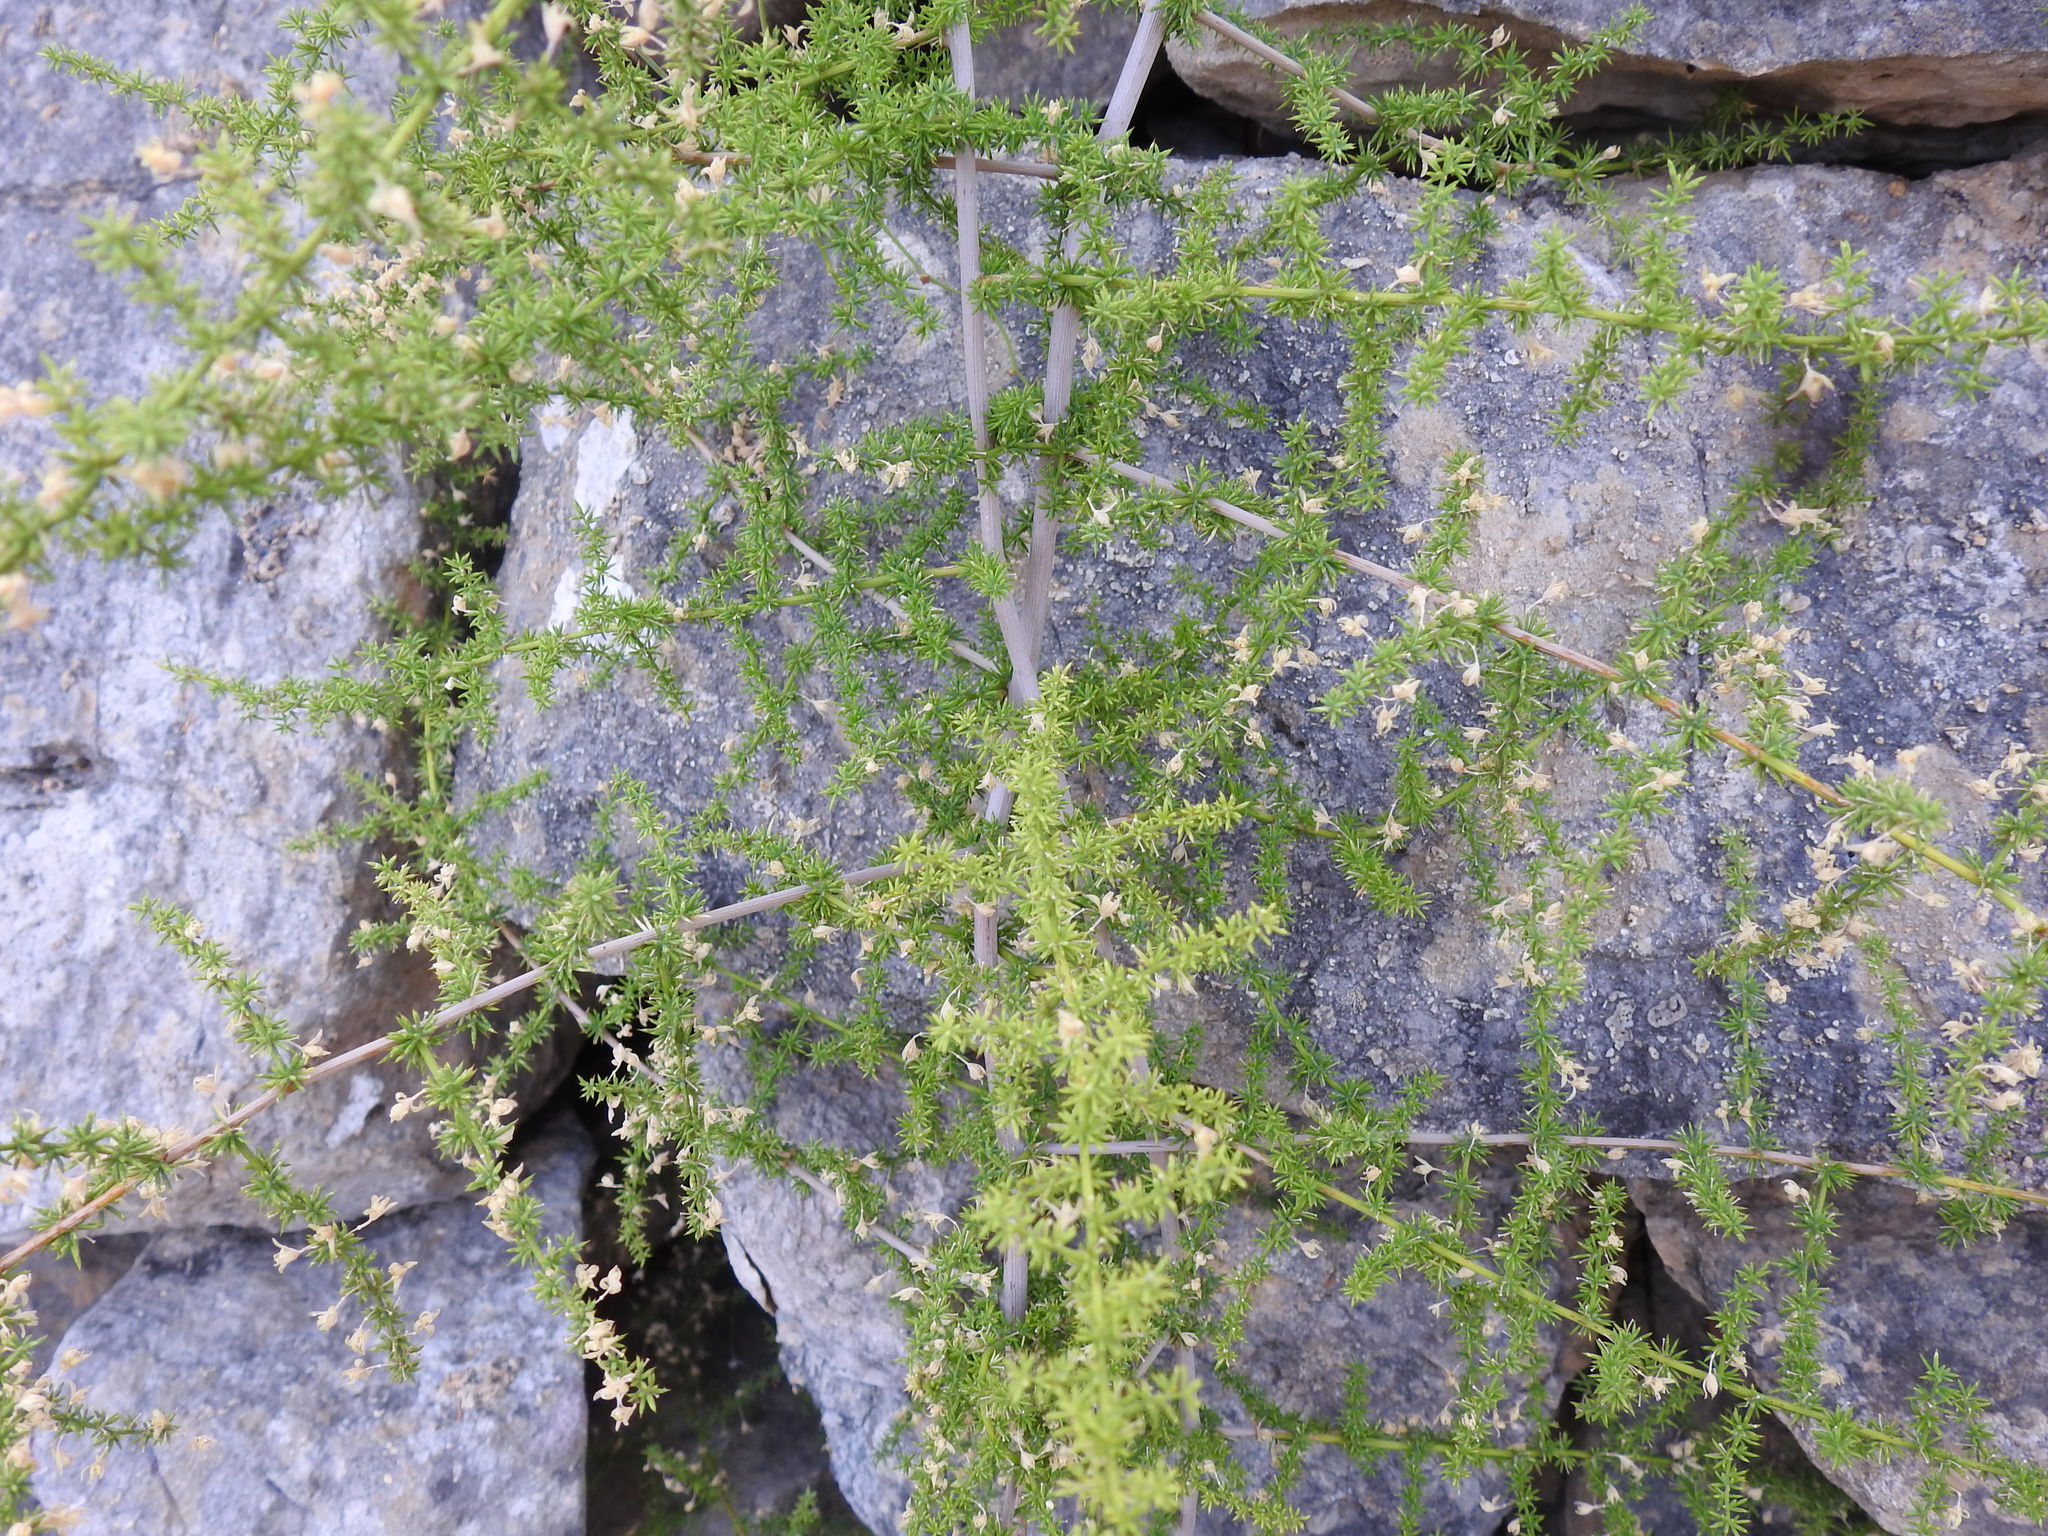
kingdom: Plantae
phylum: Tracheophyta
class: Liliopsida
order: Asparagales
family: Asparagaceae
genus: Asparagus
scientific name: Asparagus acutifolius
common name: Wild asparagus
